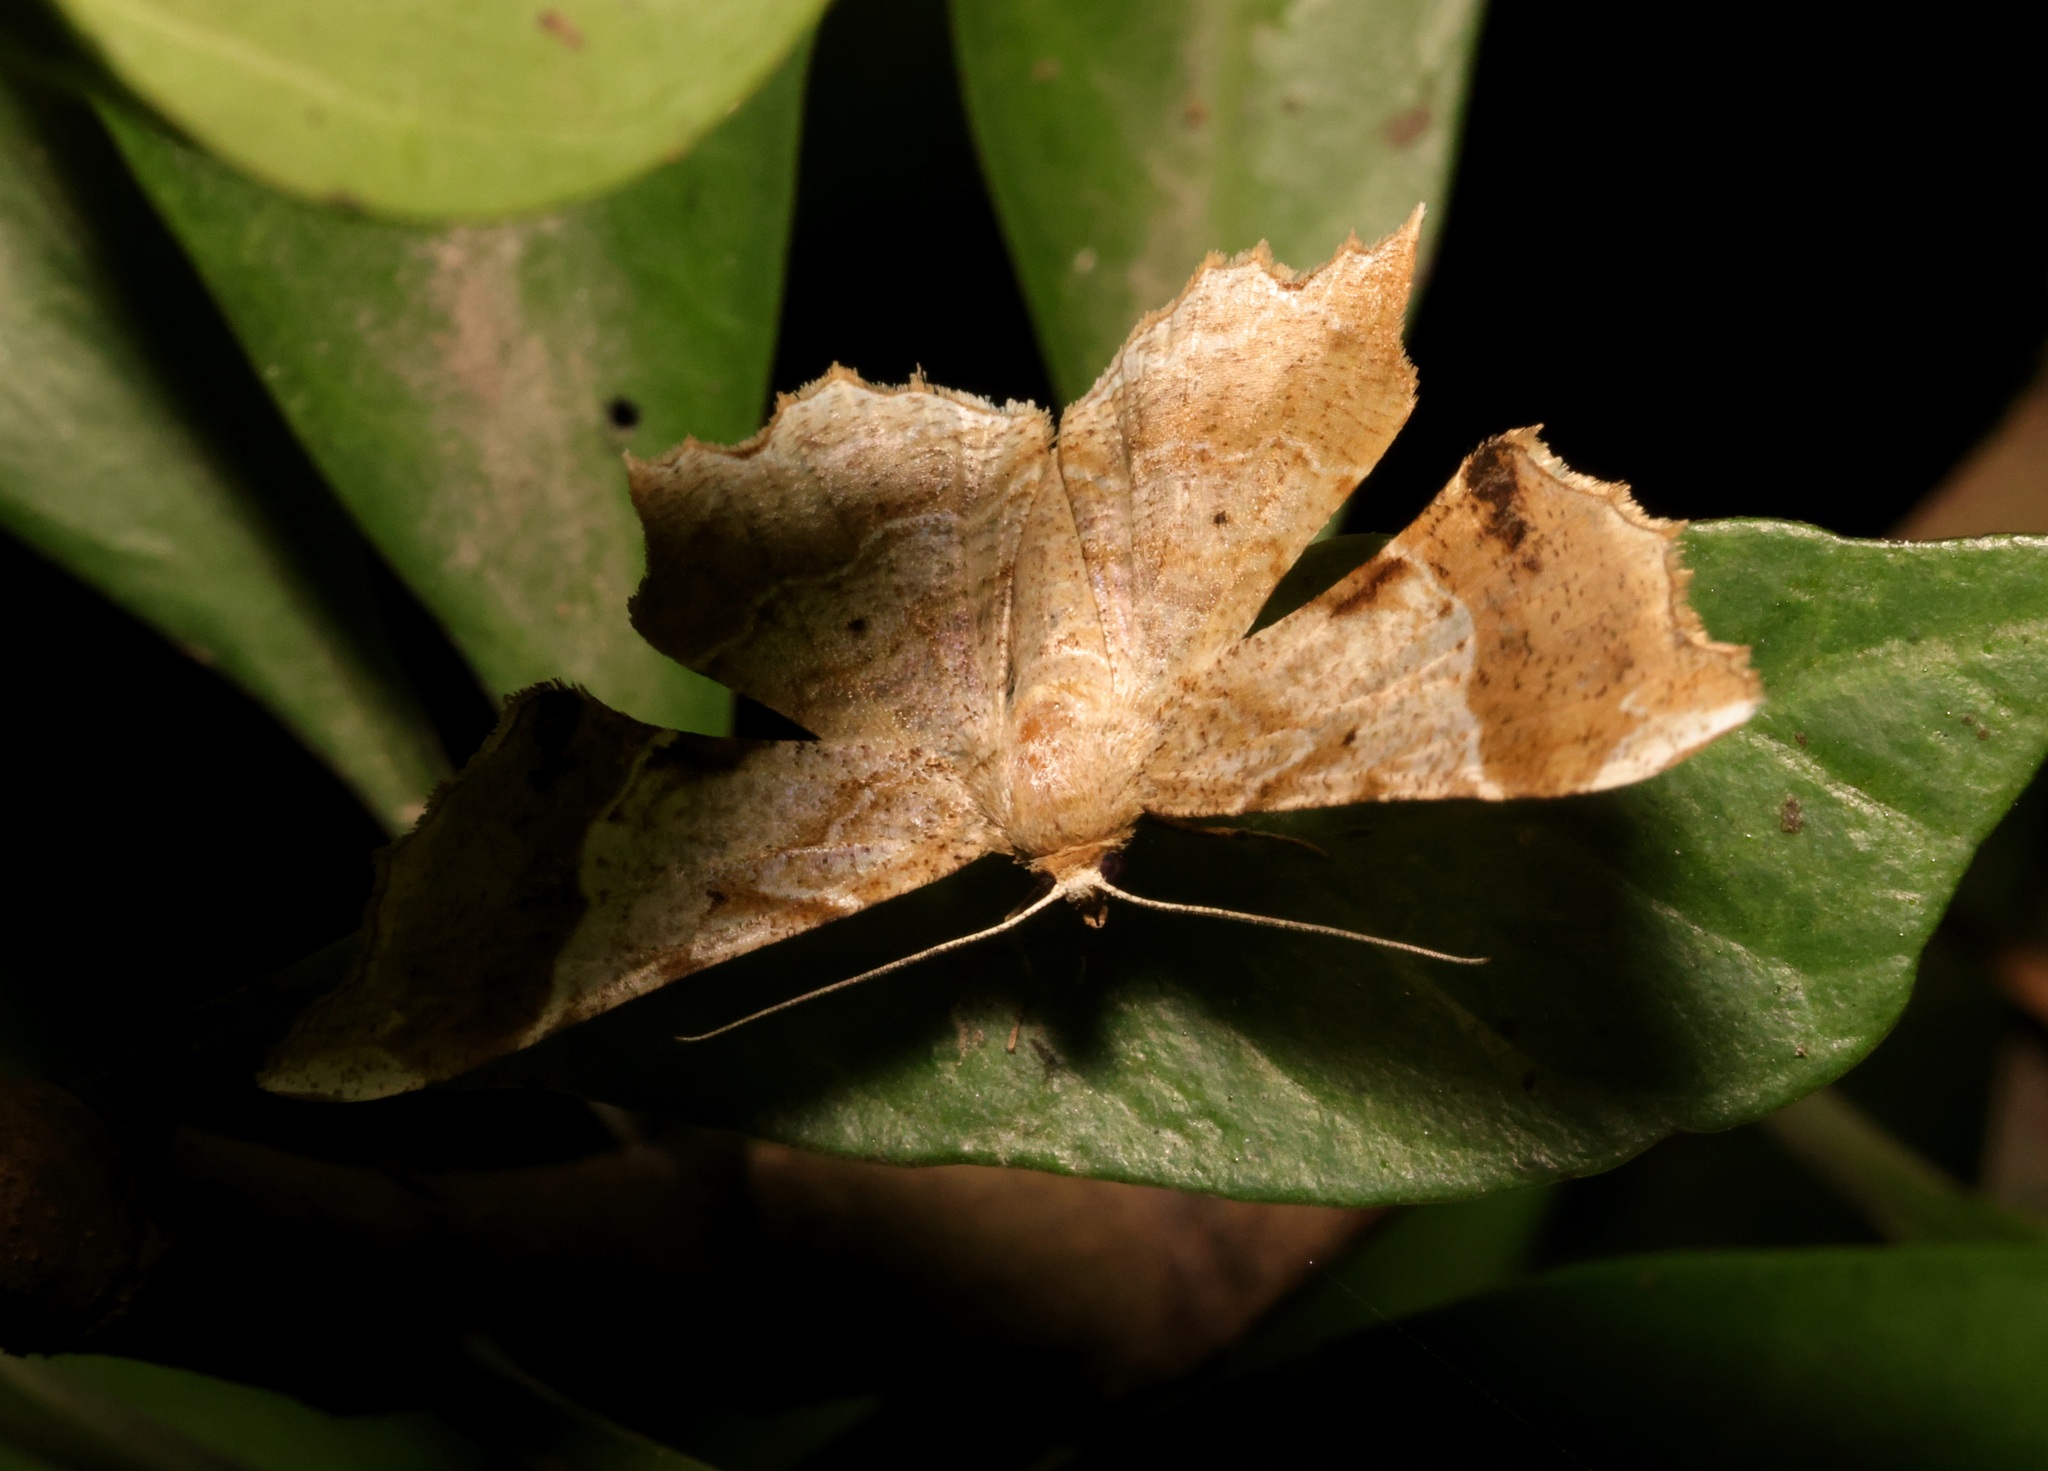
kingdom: Animalia
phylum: Arthropoda
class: Insecta
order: Lepidoptera
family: Geometridae
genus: Krananda
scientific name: Krananda oliveomarginata
